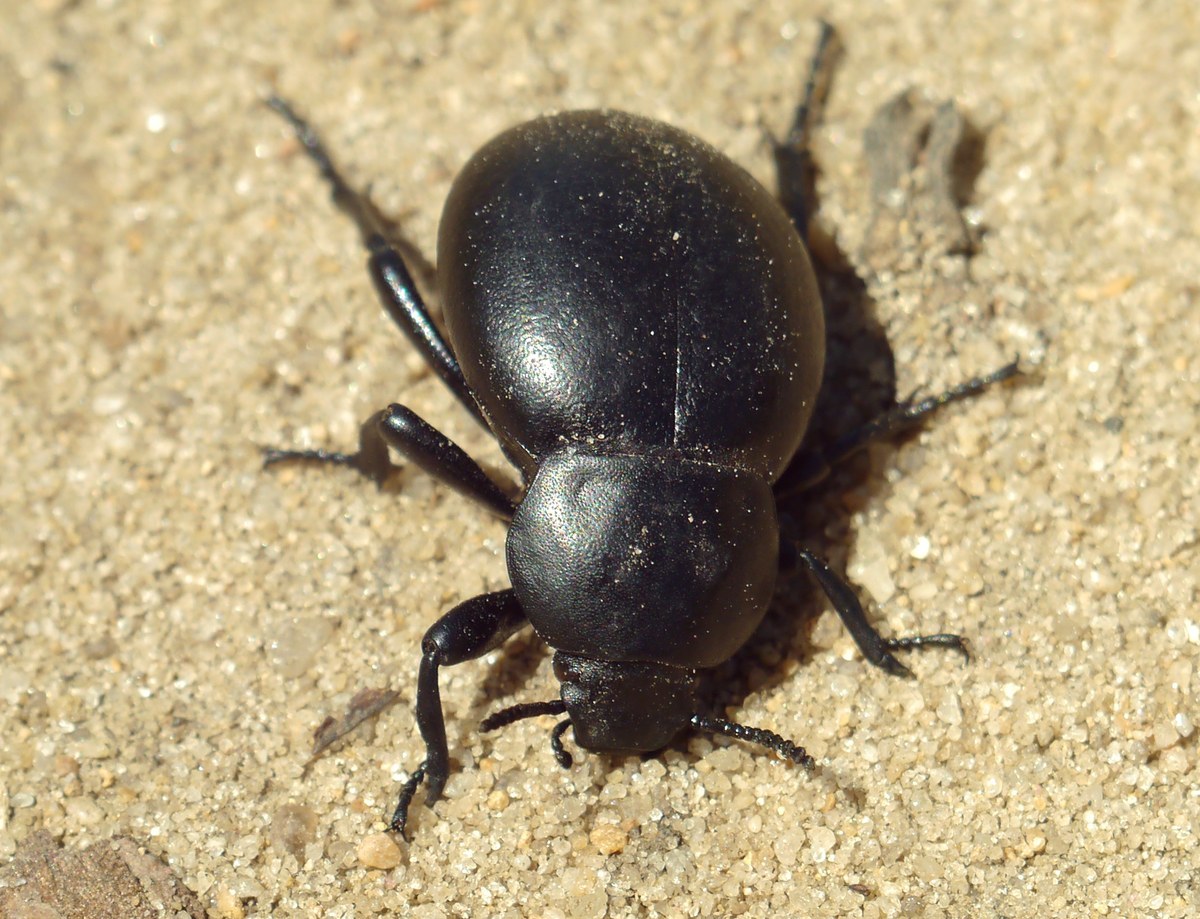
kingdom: Animalia
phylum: Arthropoda
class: Insecta
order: Coleoptera
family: Tenebrionidae
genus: Gnaptor
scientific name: Gnaptor spinimanus
